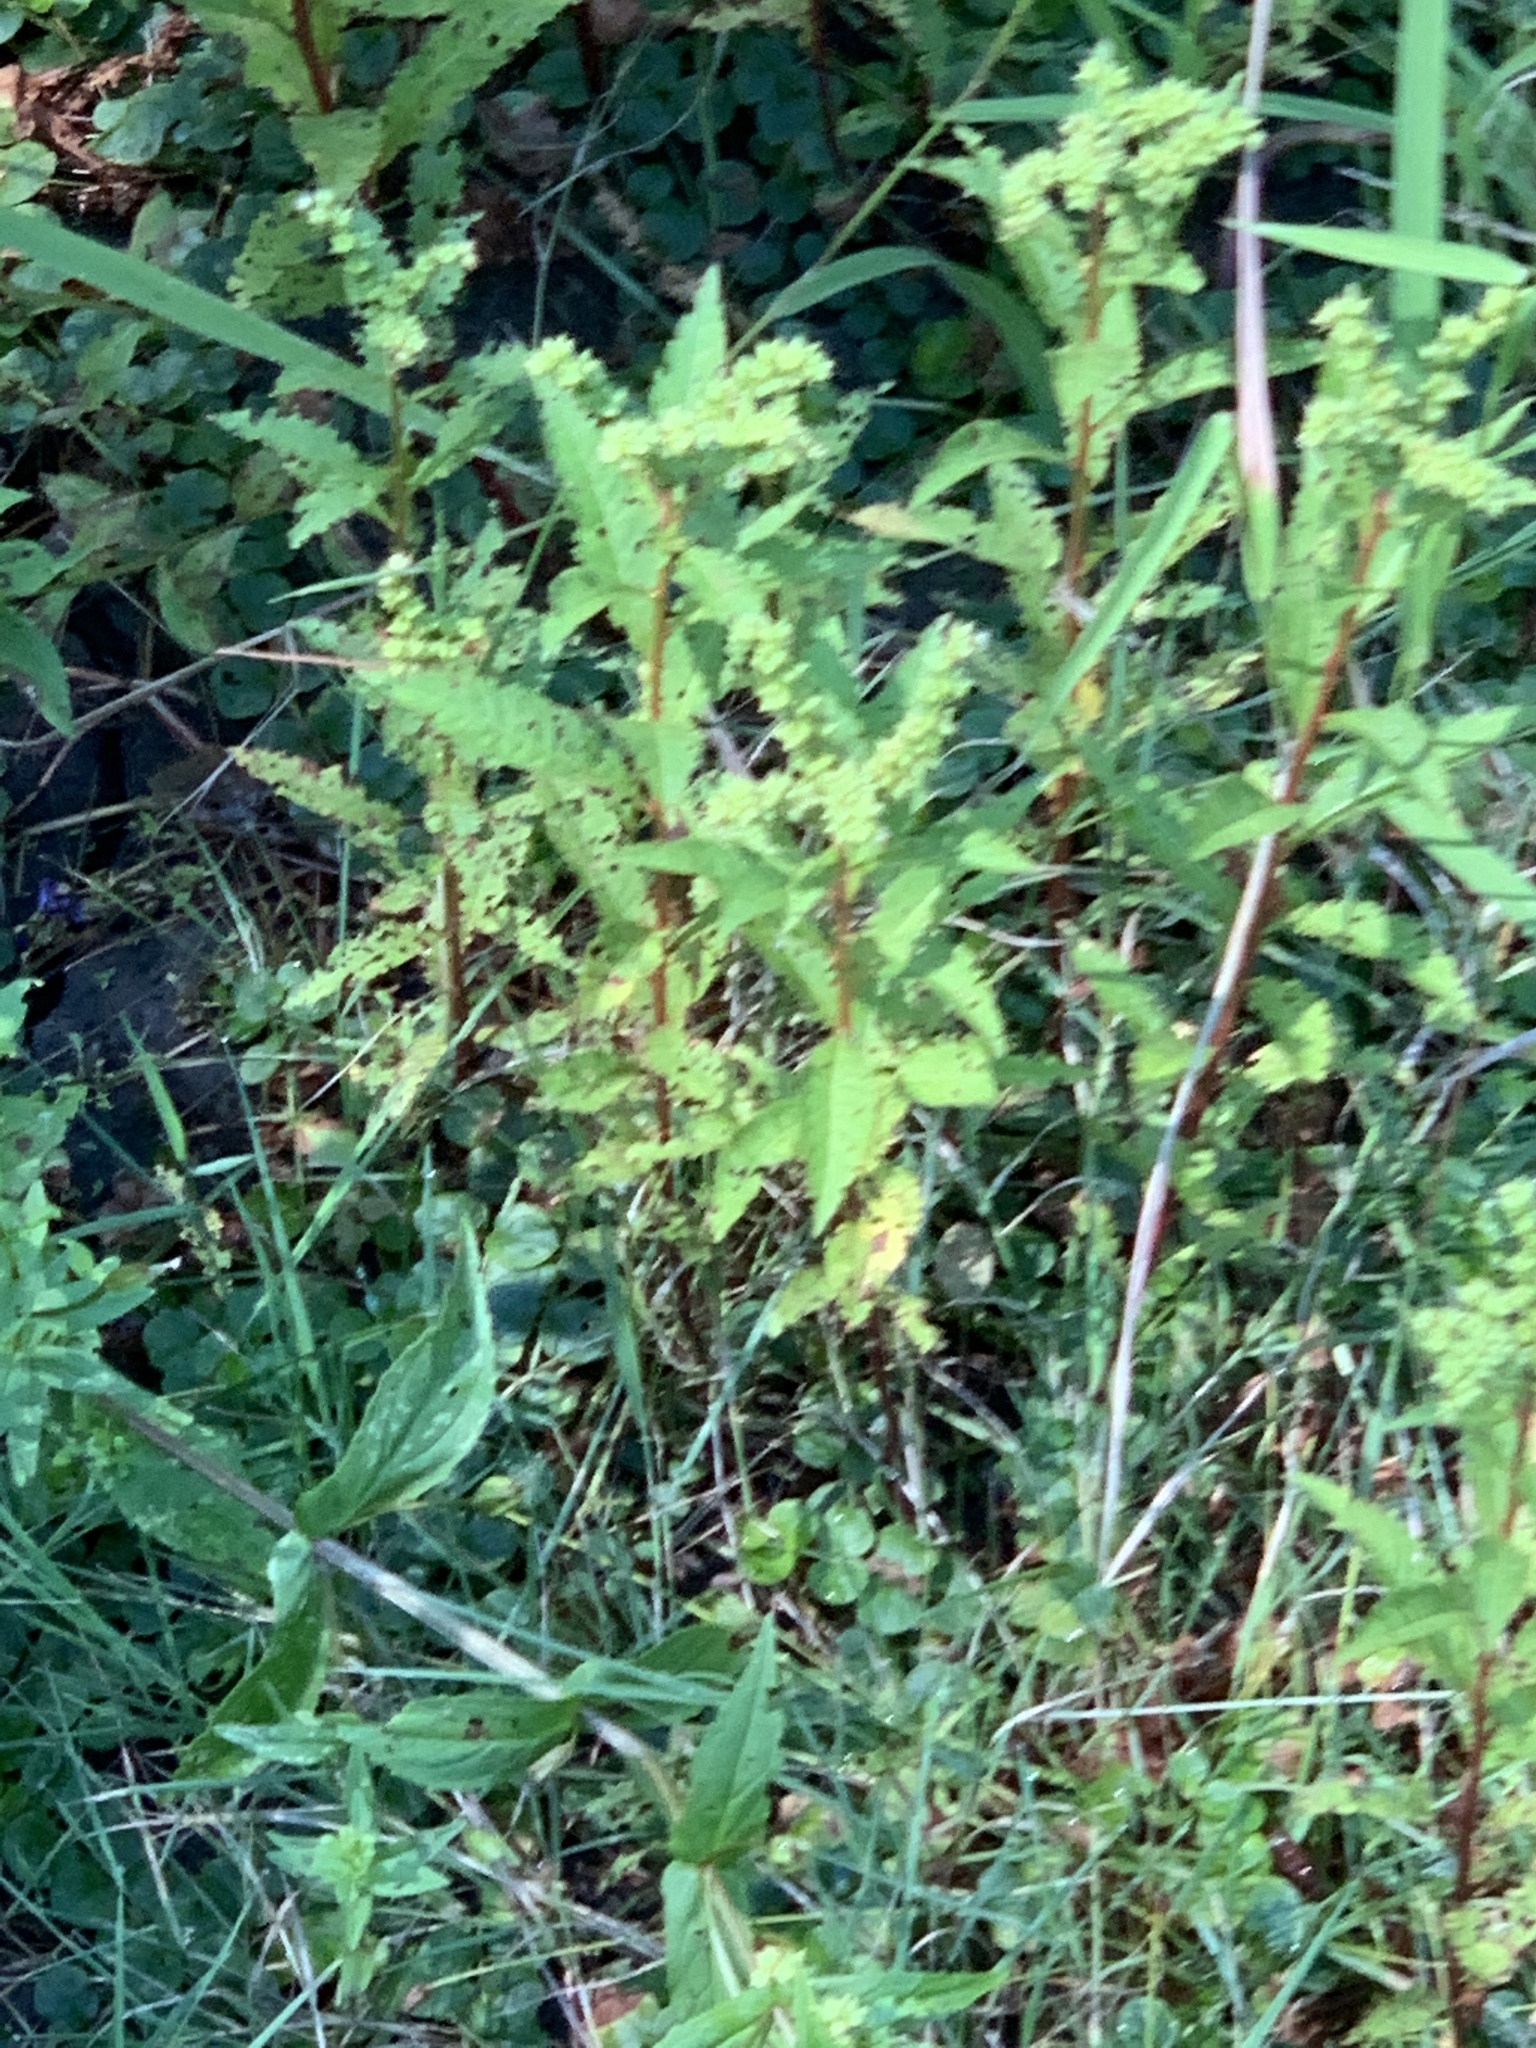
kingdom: Plantae
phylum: Tracheophyta
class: Magnoliopsida
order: Saxifragales
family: Penthoraceae
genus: Penthorum
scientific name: Penthorum sedoides
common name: Ditch stonecrop
